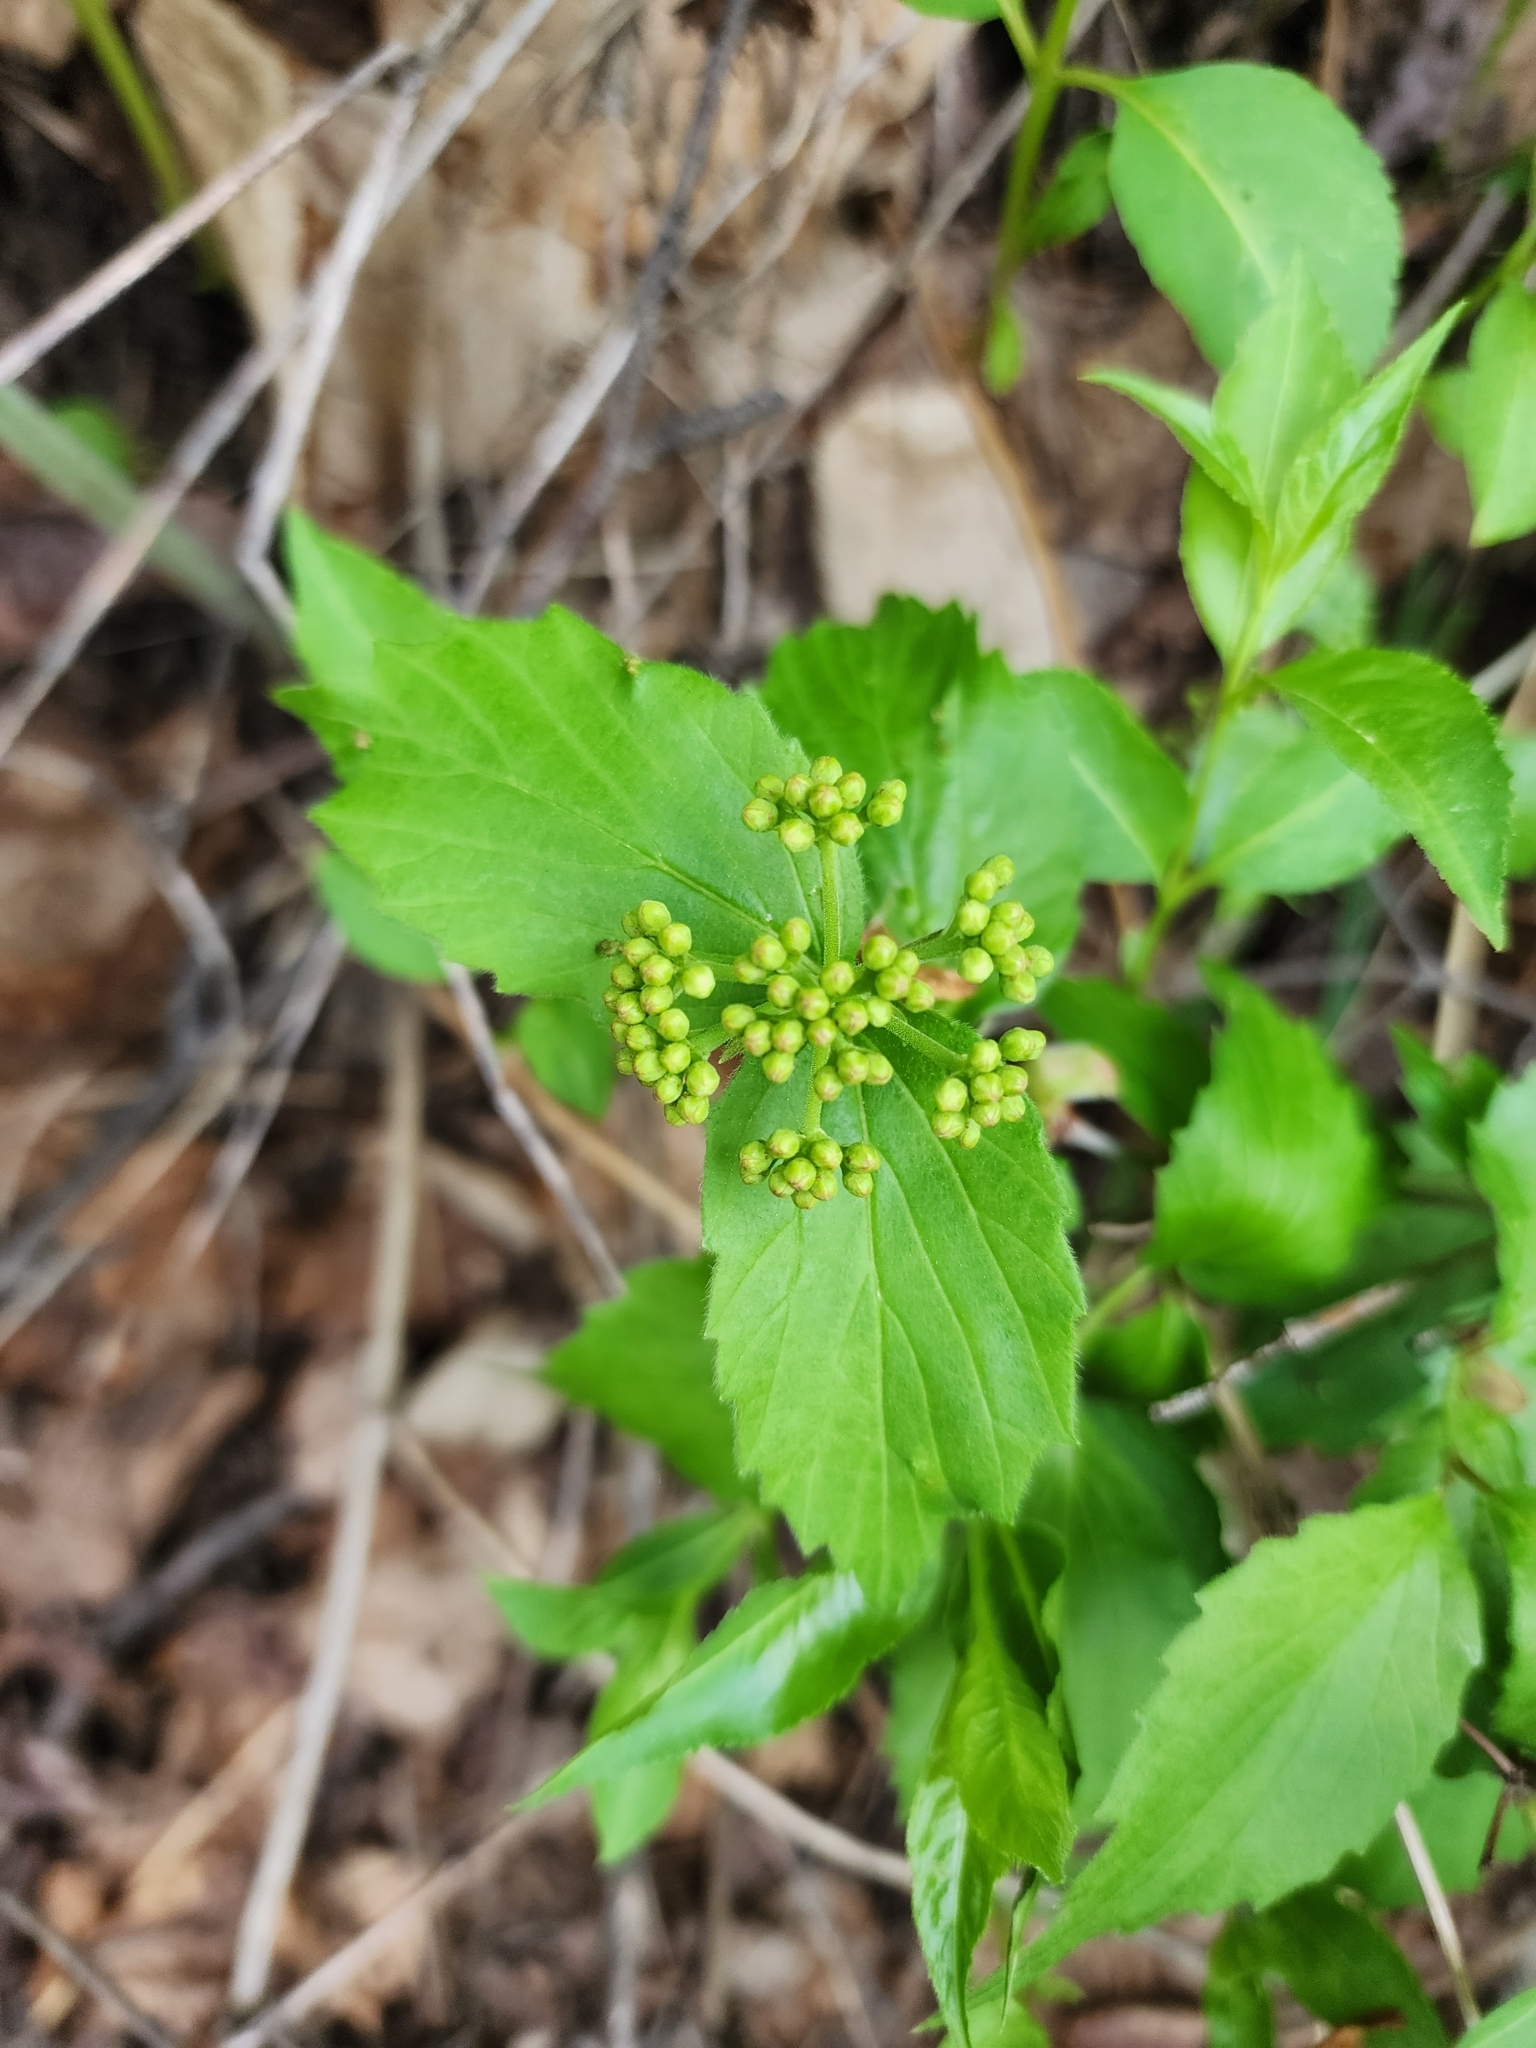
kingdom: Plantae
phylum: Tracheophyta
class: Magnoliopsida
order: Dipsacales
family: Viburnaceae
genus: Viburnum
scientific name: Viburnum rafinesqueanum
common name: Downy arrow-wood
